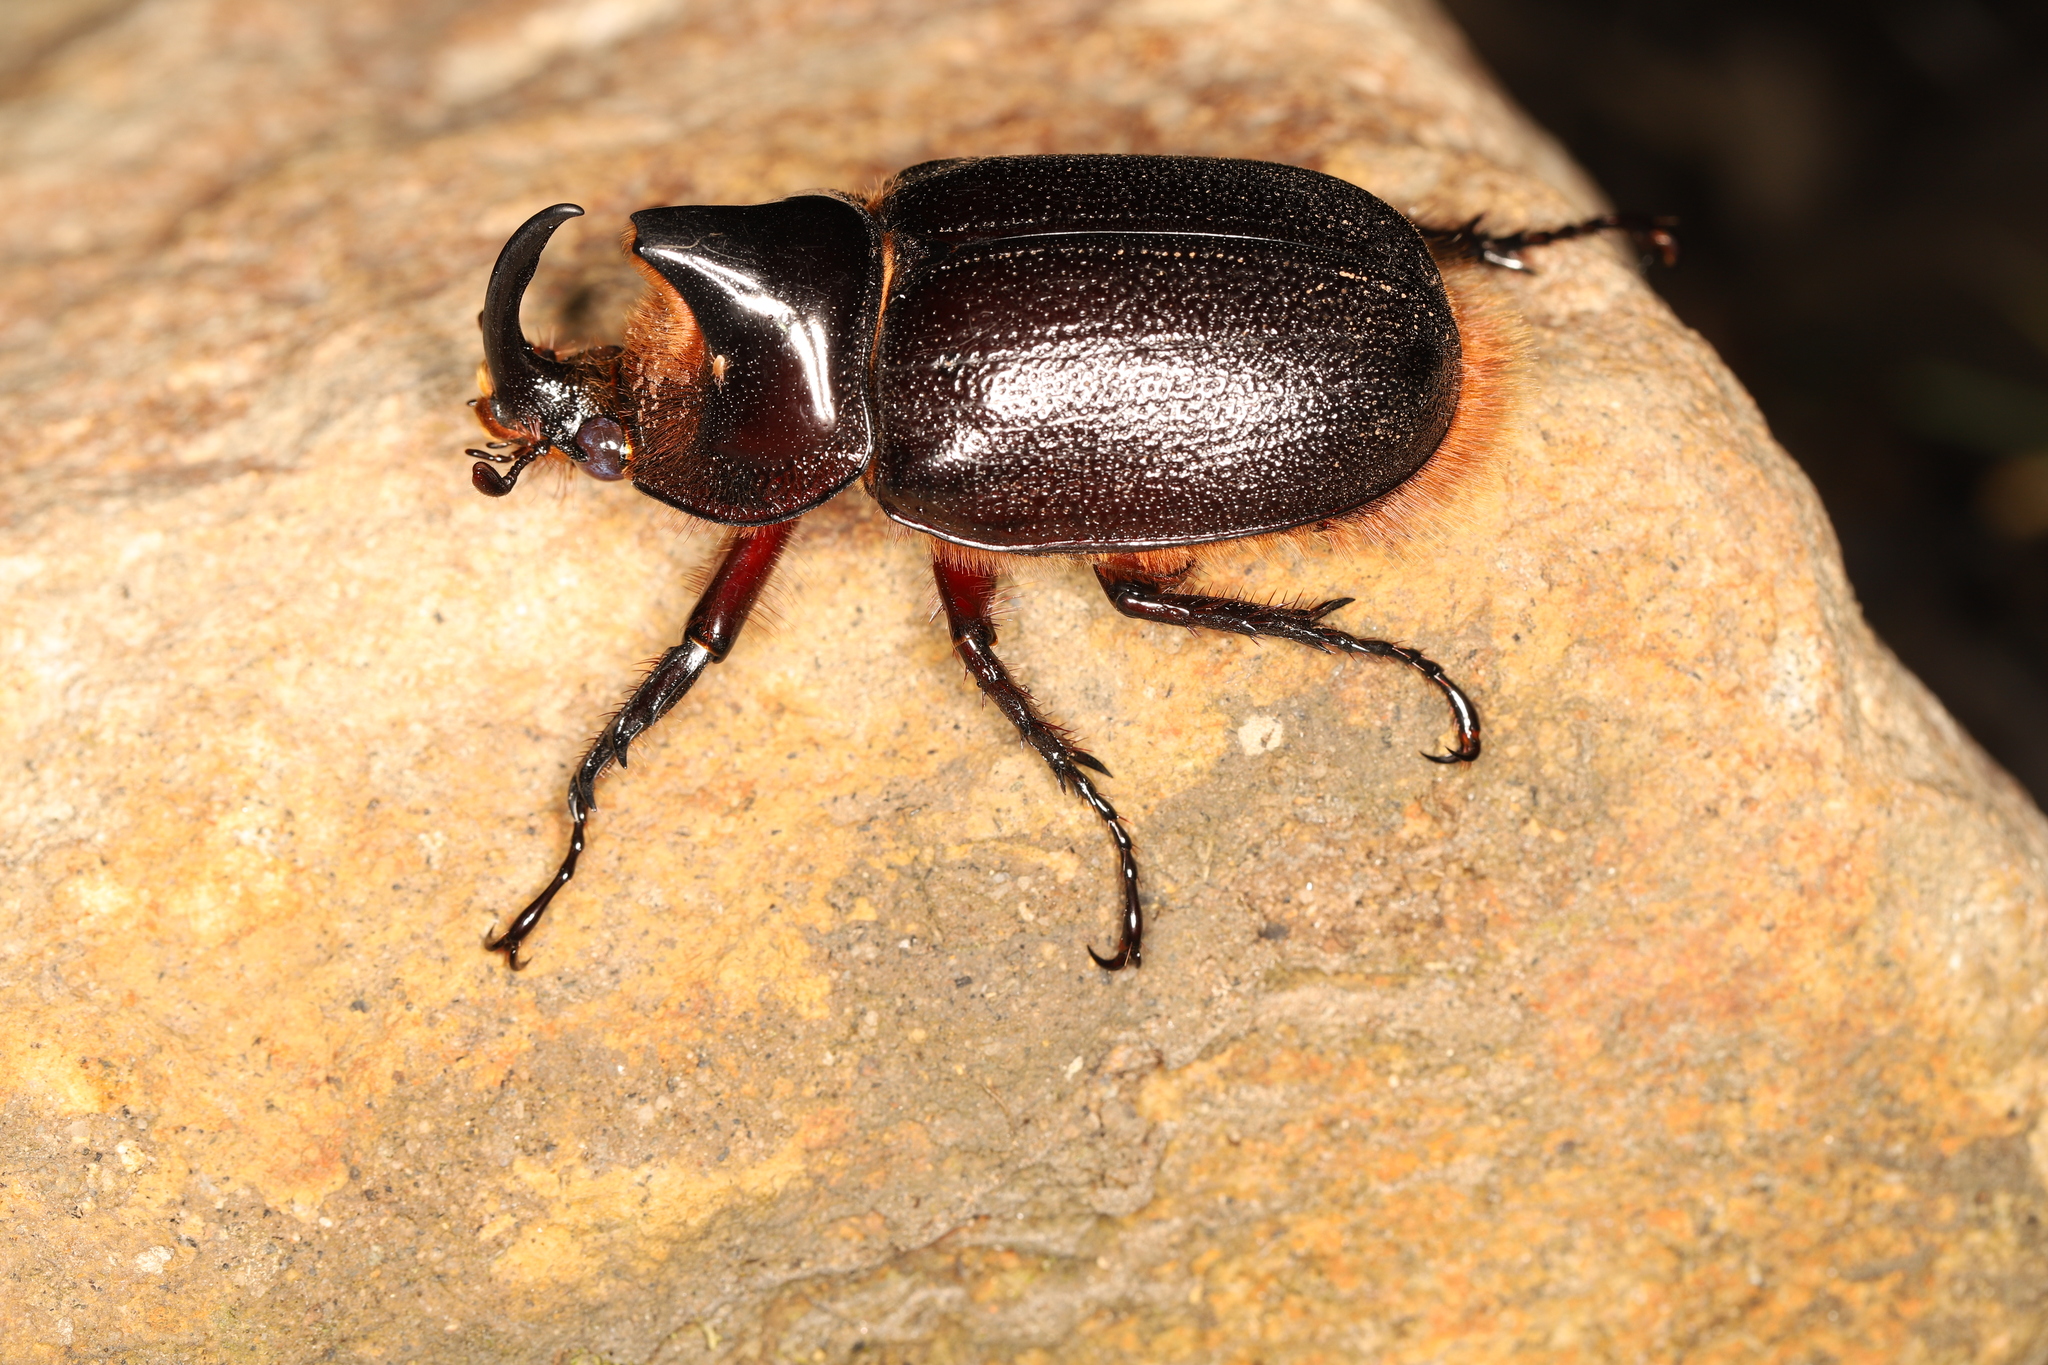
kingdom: Animalia
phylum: Arthropoda
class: Insecta
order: Coleoptera
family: Scarabaeidae
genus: Heterogomphus
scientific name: Heterogomphus schoenherri
